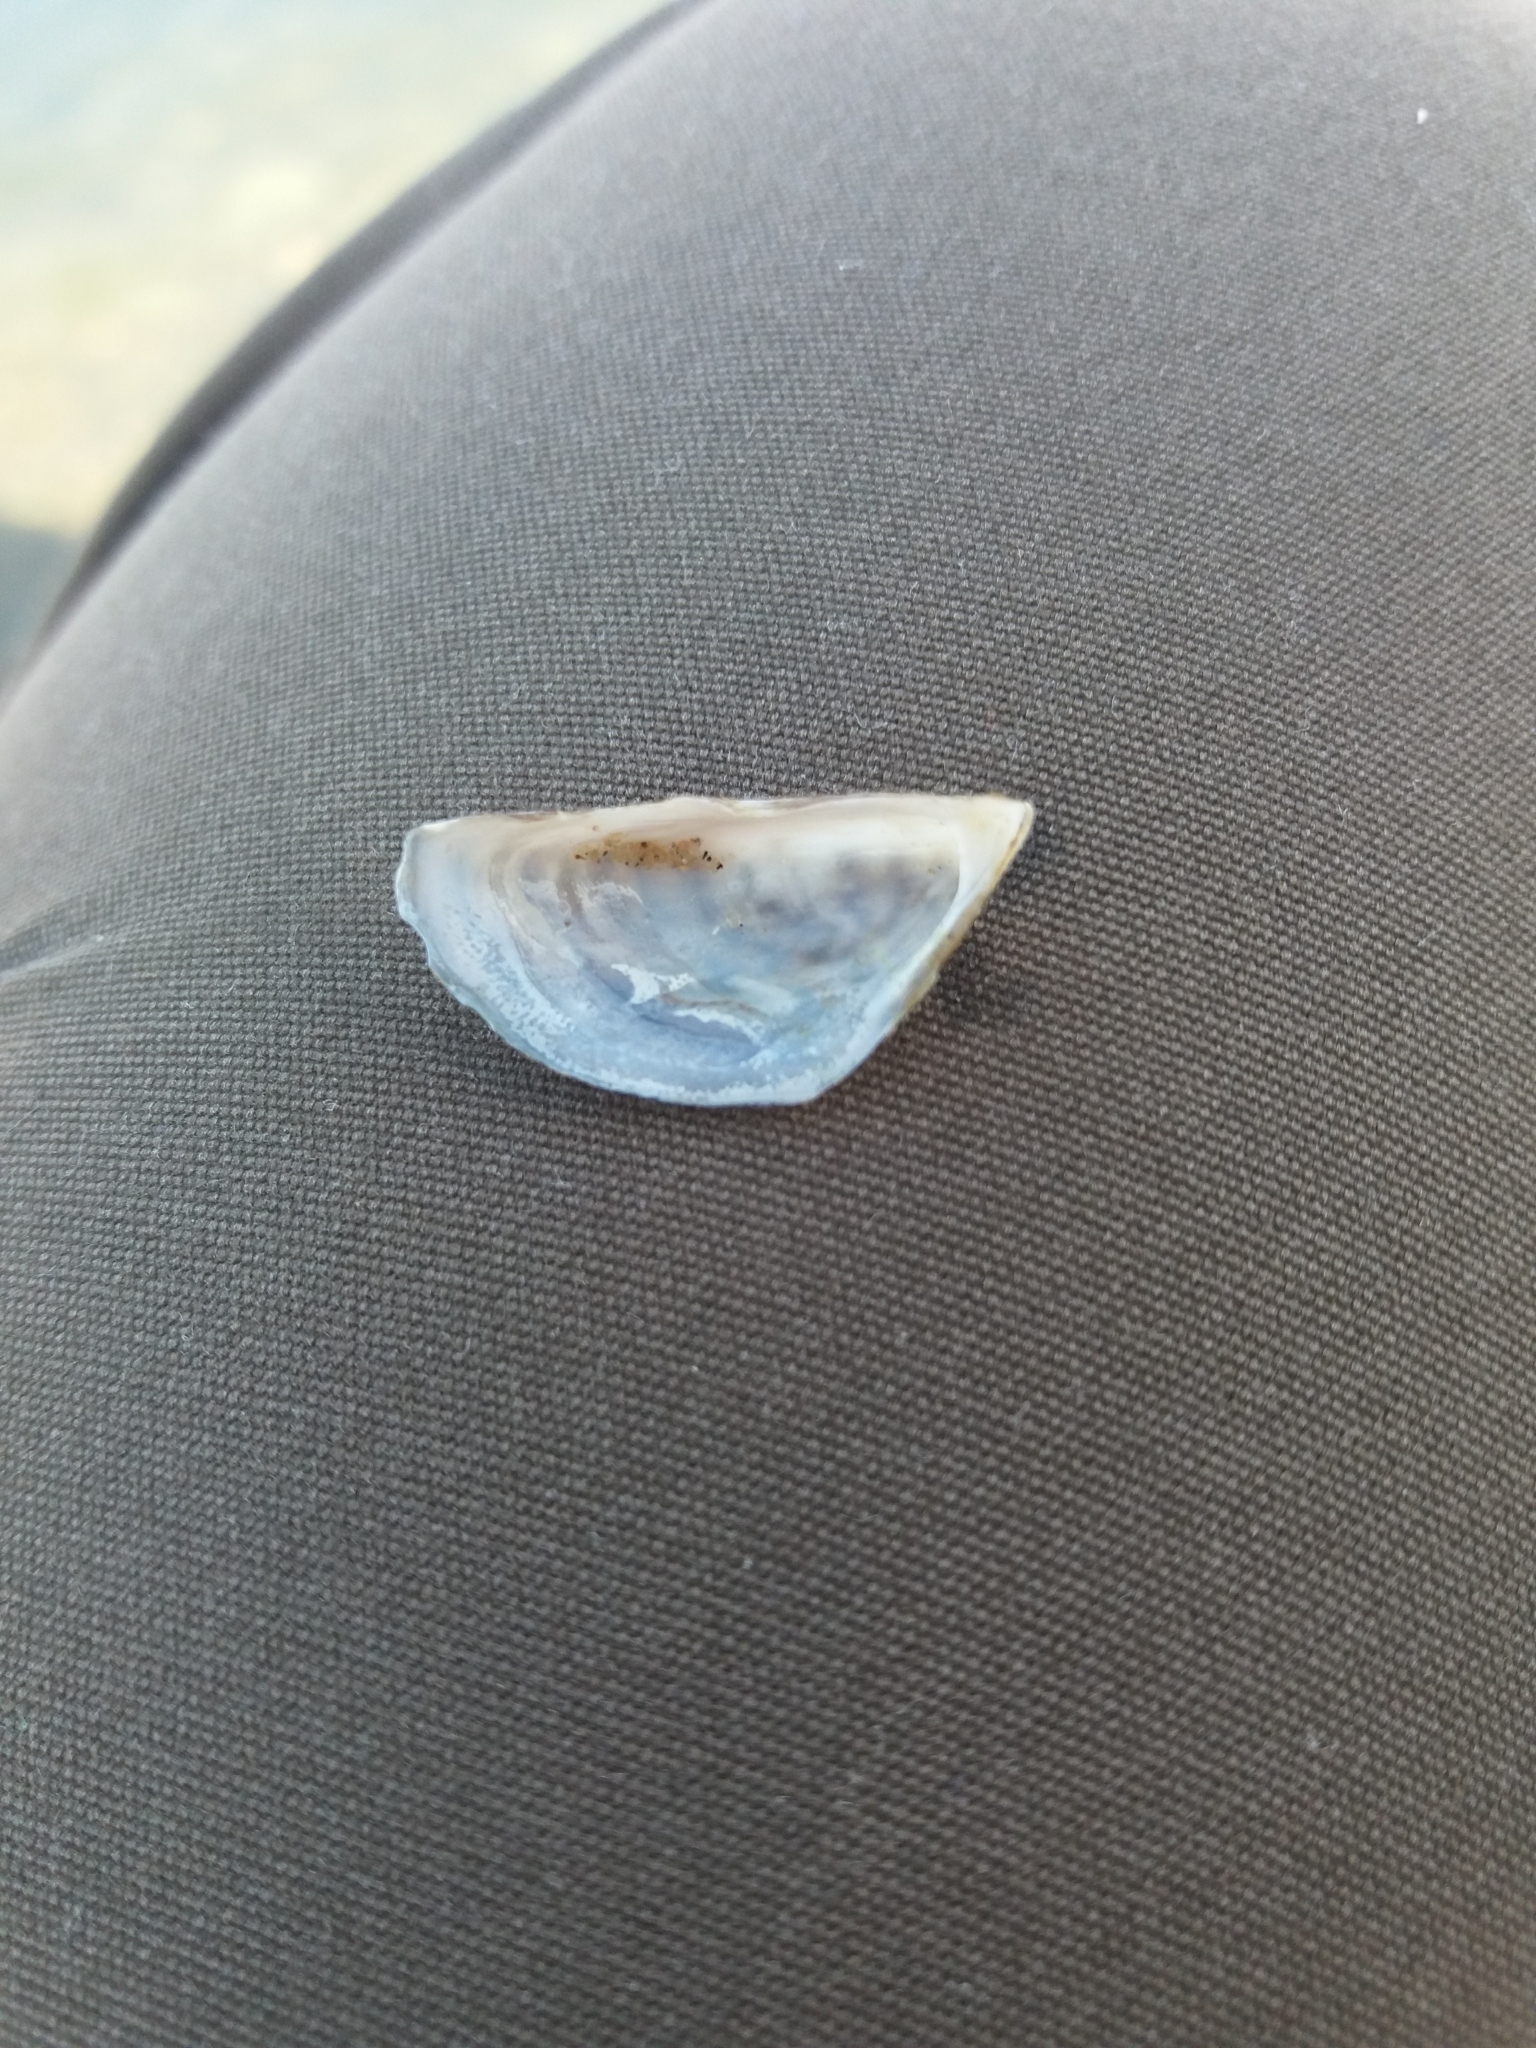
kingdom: Animalia
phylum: Mollusca
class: Bivalvia
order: Myida
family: Dreissenidae
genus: Dreissena
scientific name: Dreissena polymorpha
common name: Zebra mussel
